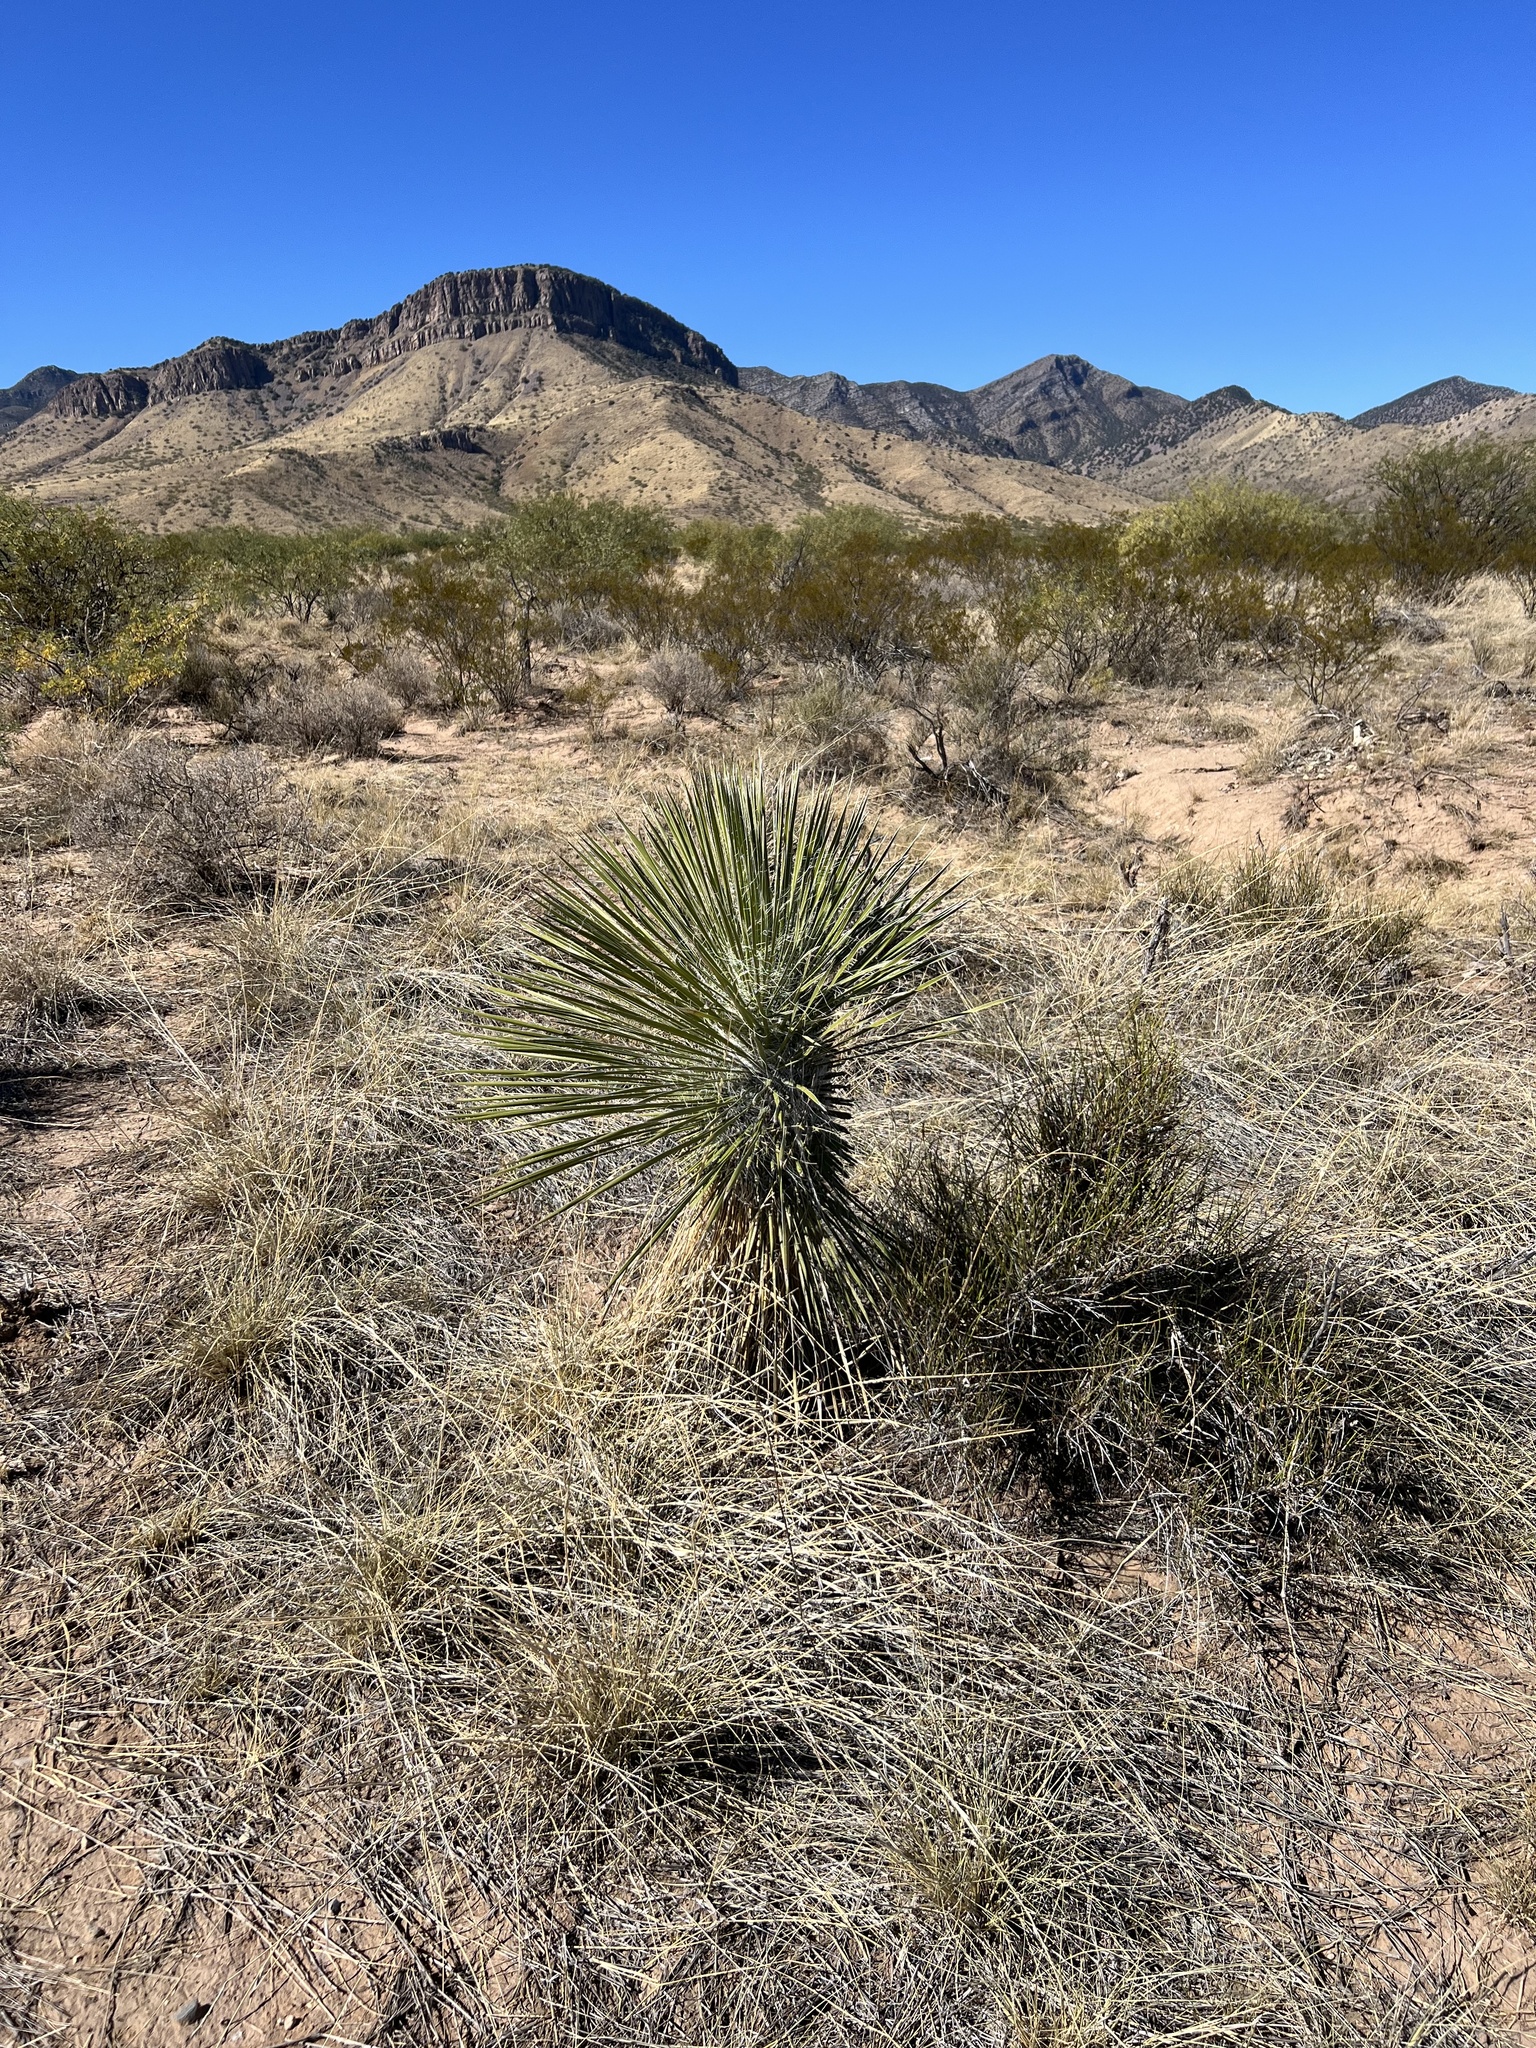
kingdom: Plantae
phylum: Tracheophyta
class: Liliopsida
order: Asparagales
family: Asparagaceae
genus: Yucca
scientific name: Yucca elata
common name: Palmella
